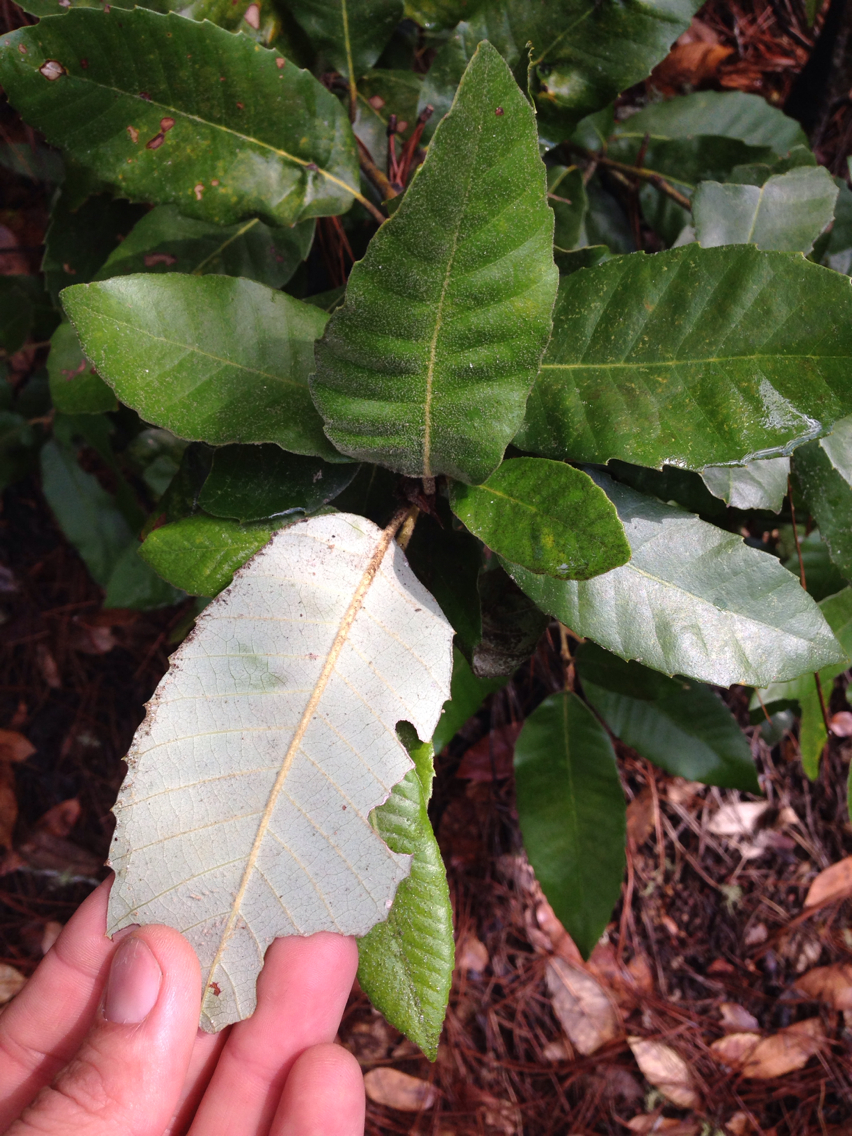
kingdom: Plantae
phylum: Tracheophyta
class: Magnoliopsida
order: Fagales
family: Fagaceae
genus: Notholithocarpus
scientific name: Notholithocarpus densiflorus
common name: Tan bark oak
